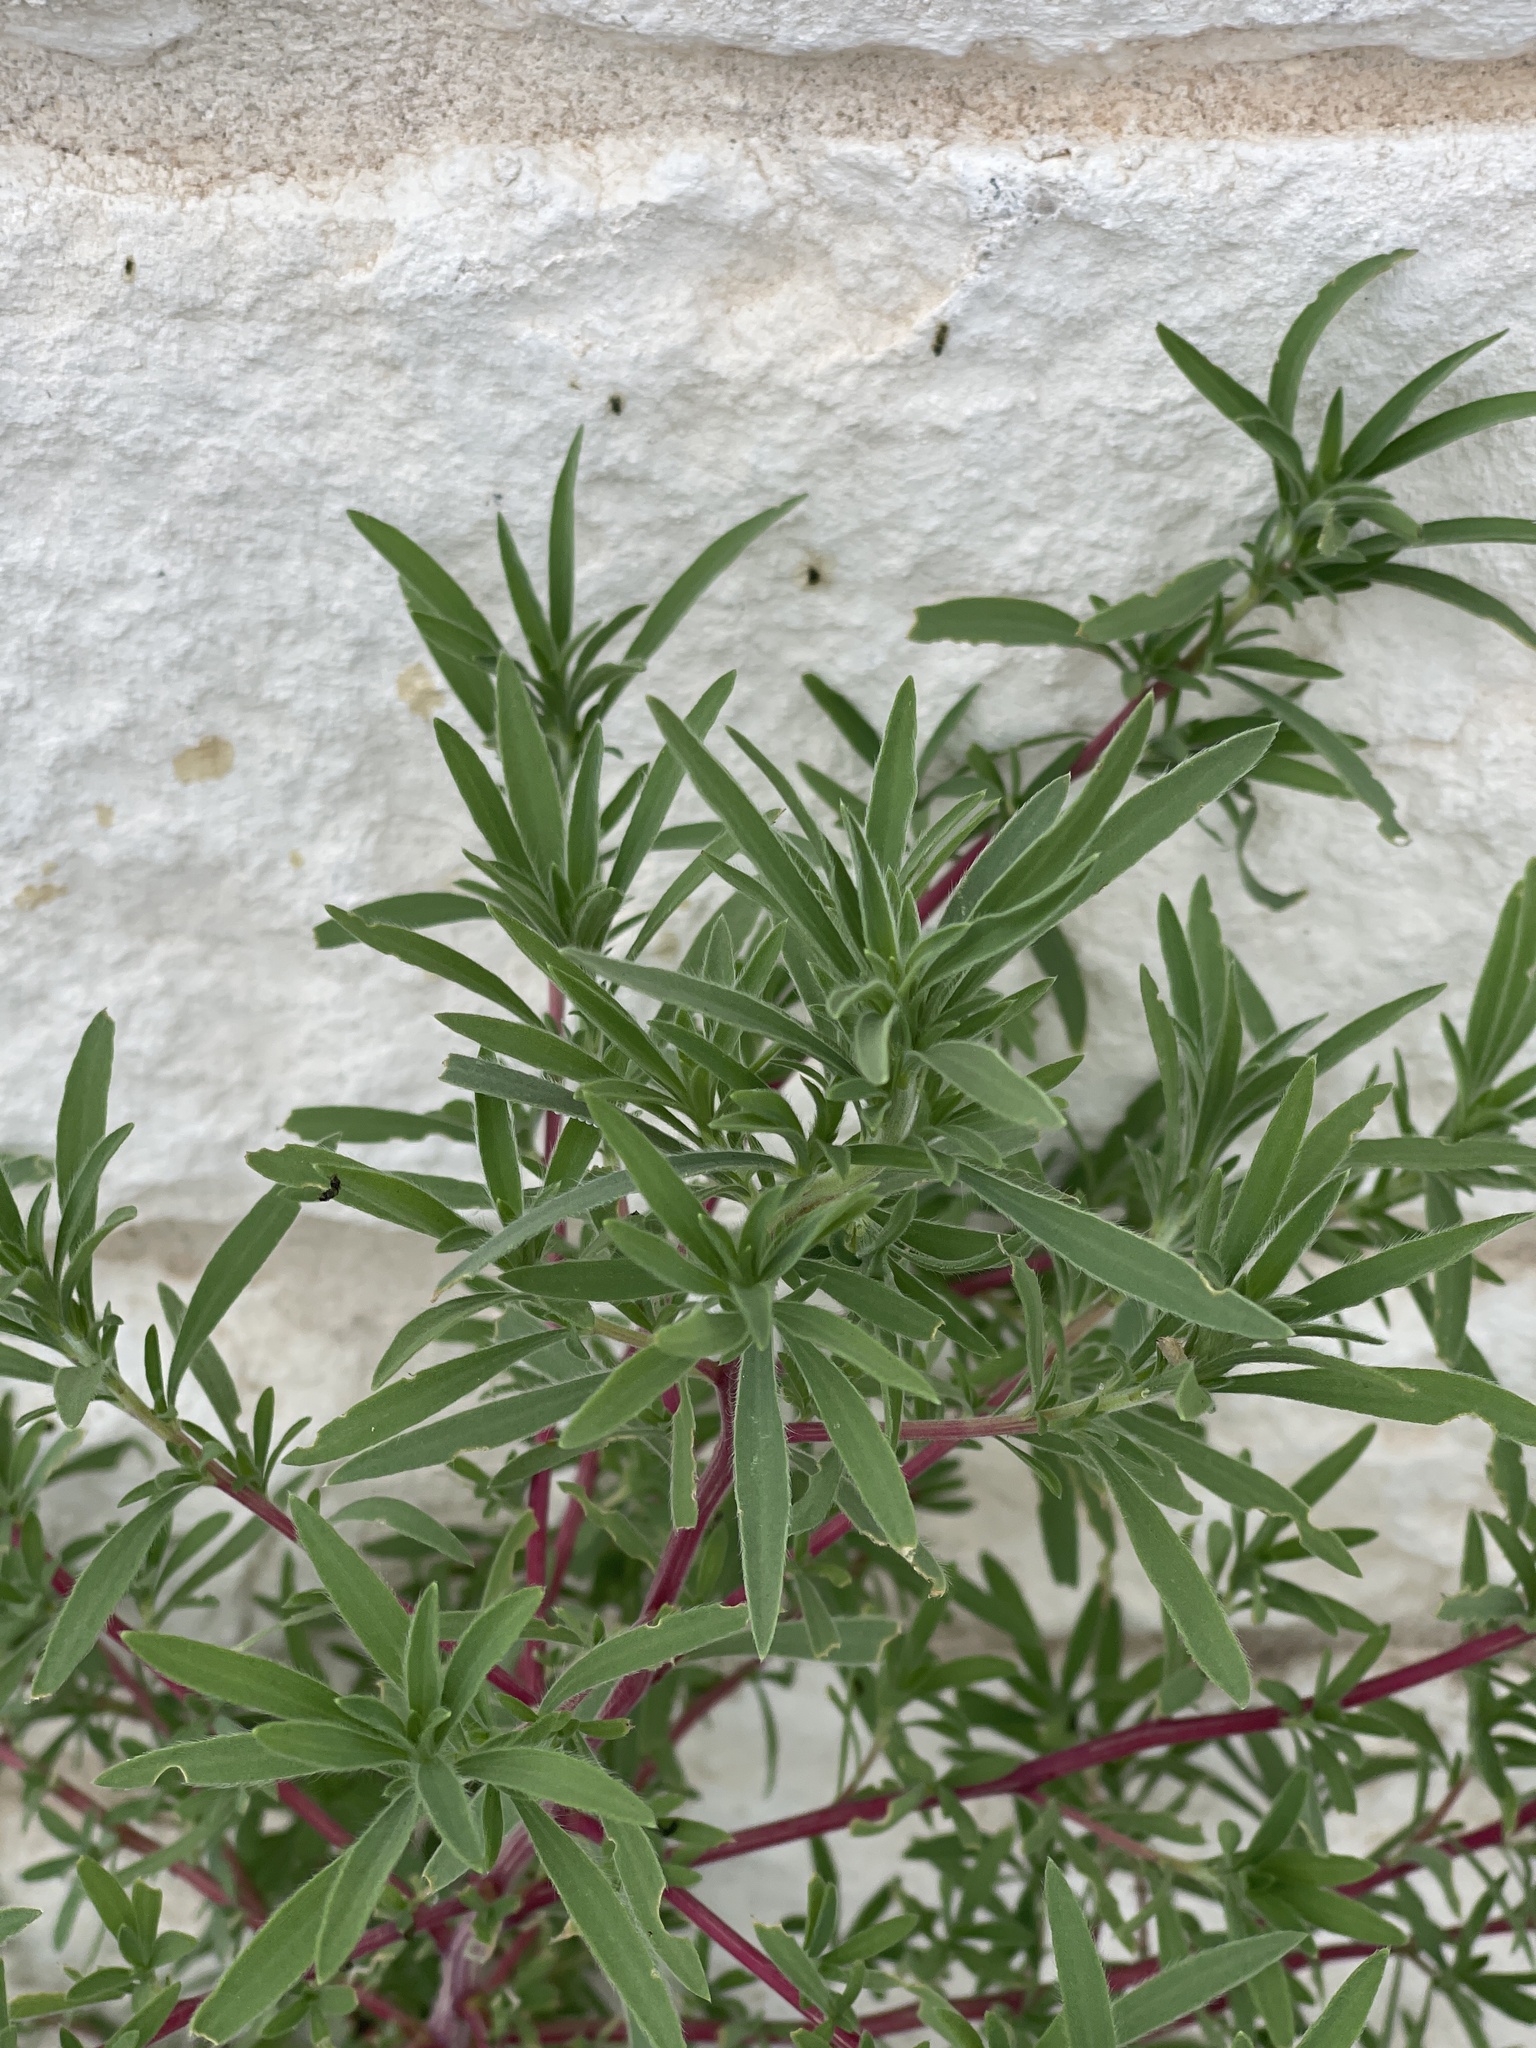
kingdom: Plantae
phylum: Tracheophyta
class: Magnoliopsida
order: Caryophyllales
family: Amaranthaceae
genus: Bassia
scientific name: Bassia scoparia
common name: Belvedere
